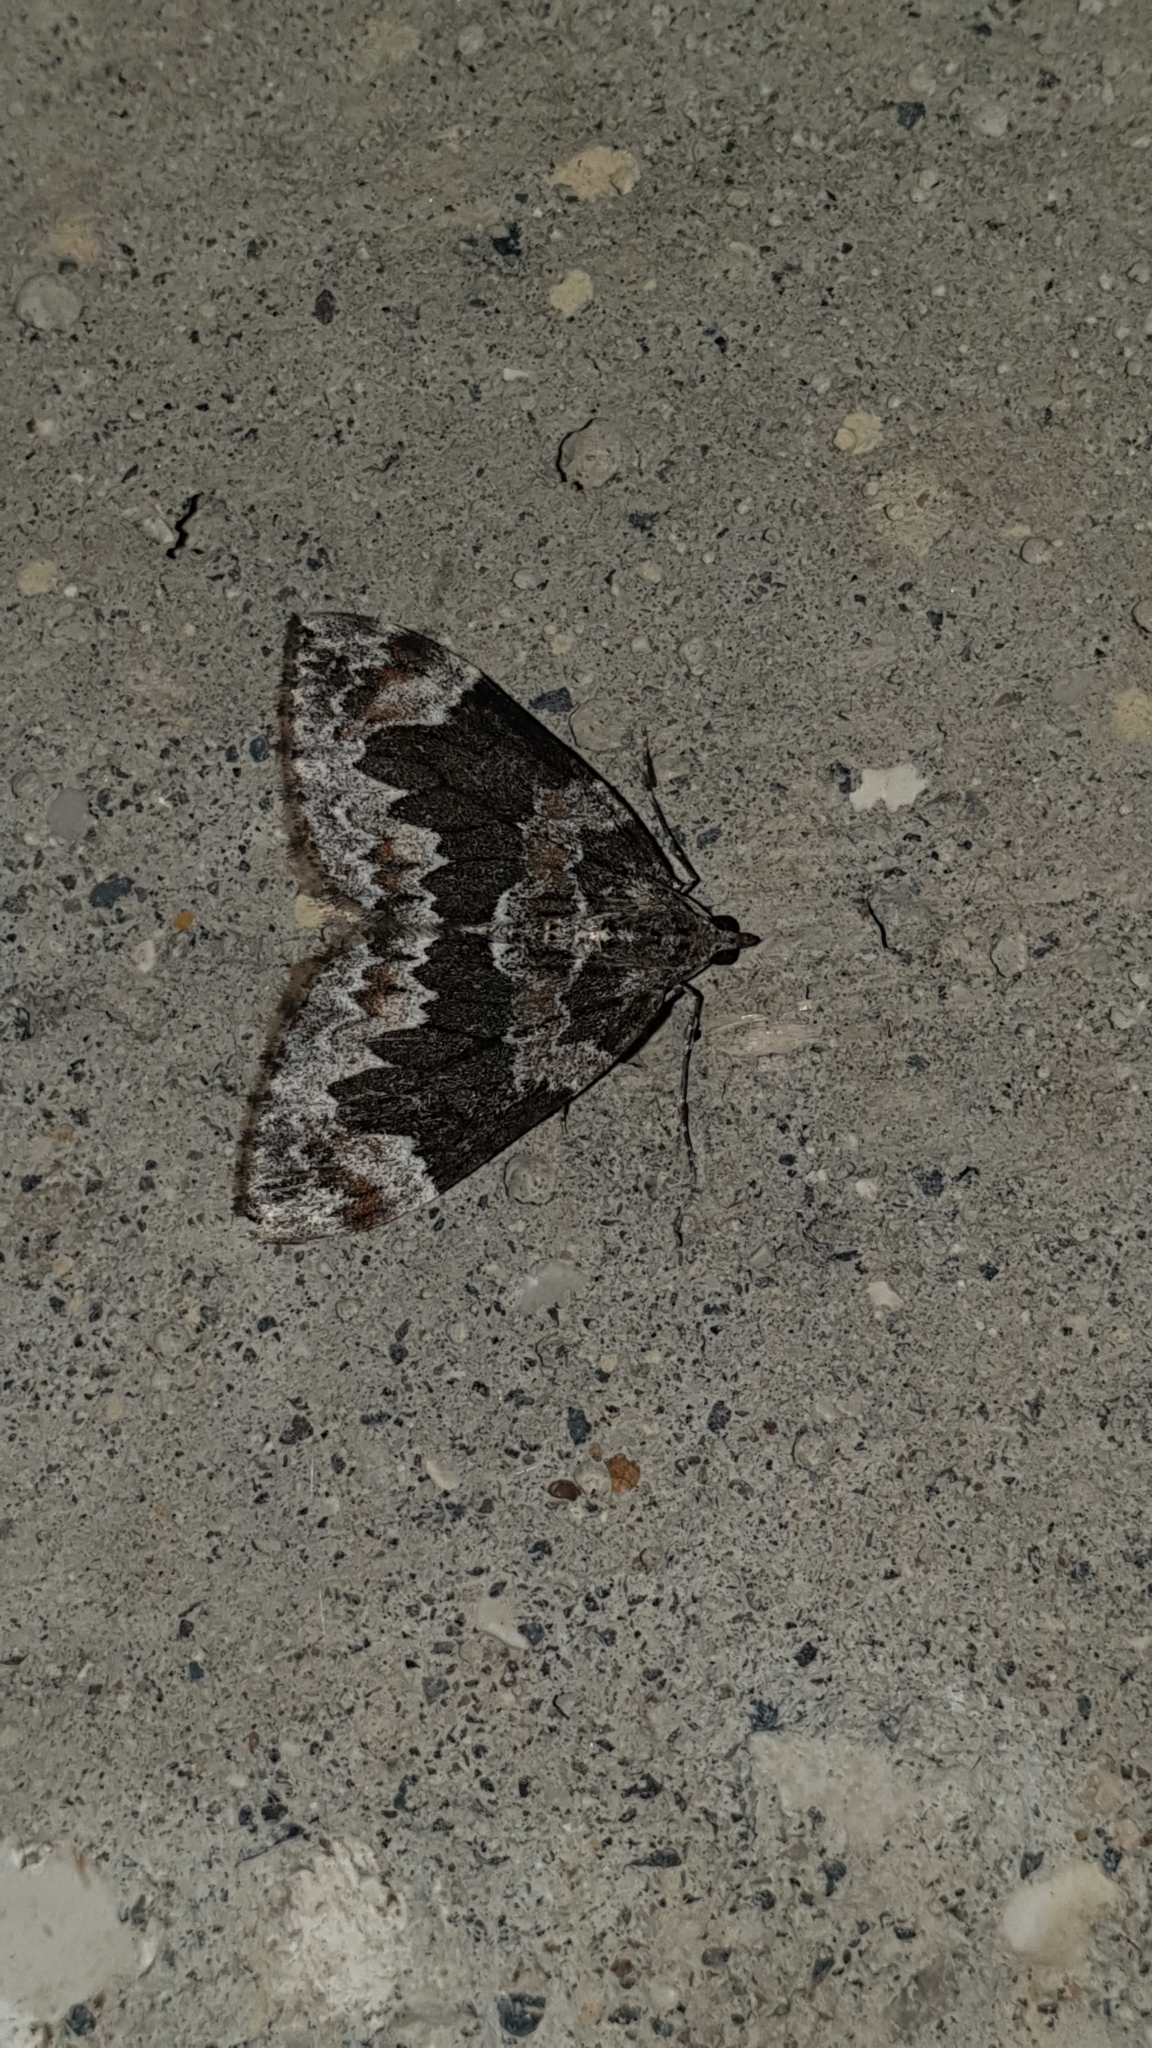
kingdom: Animalia
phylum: Arthropoda
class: Insecta
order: Lepidoptera
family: Geometridae
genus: Dysstroma
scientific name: Dysstroma citrata
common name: Dark marbled carpet
